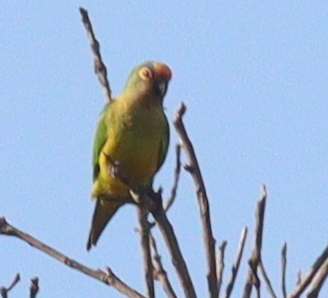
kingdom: Animalia
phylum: Chordata
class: Aves
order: Psittaciformes
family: Psittacidae
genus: Aratinga
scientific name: Aratinga aurea
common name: Peach-fronted parakeet
